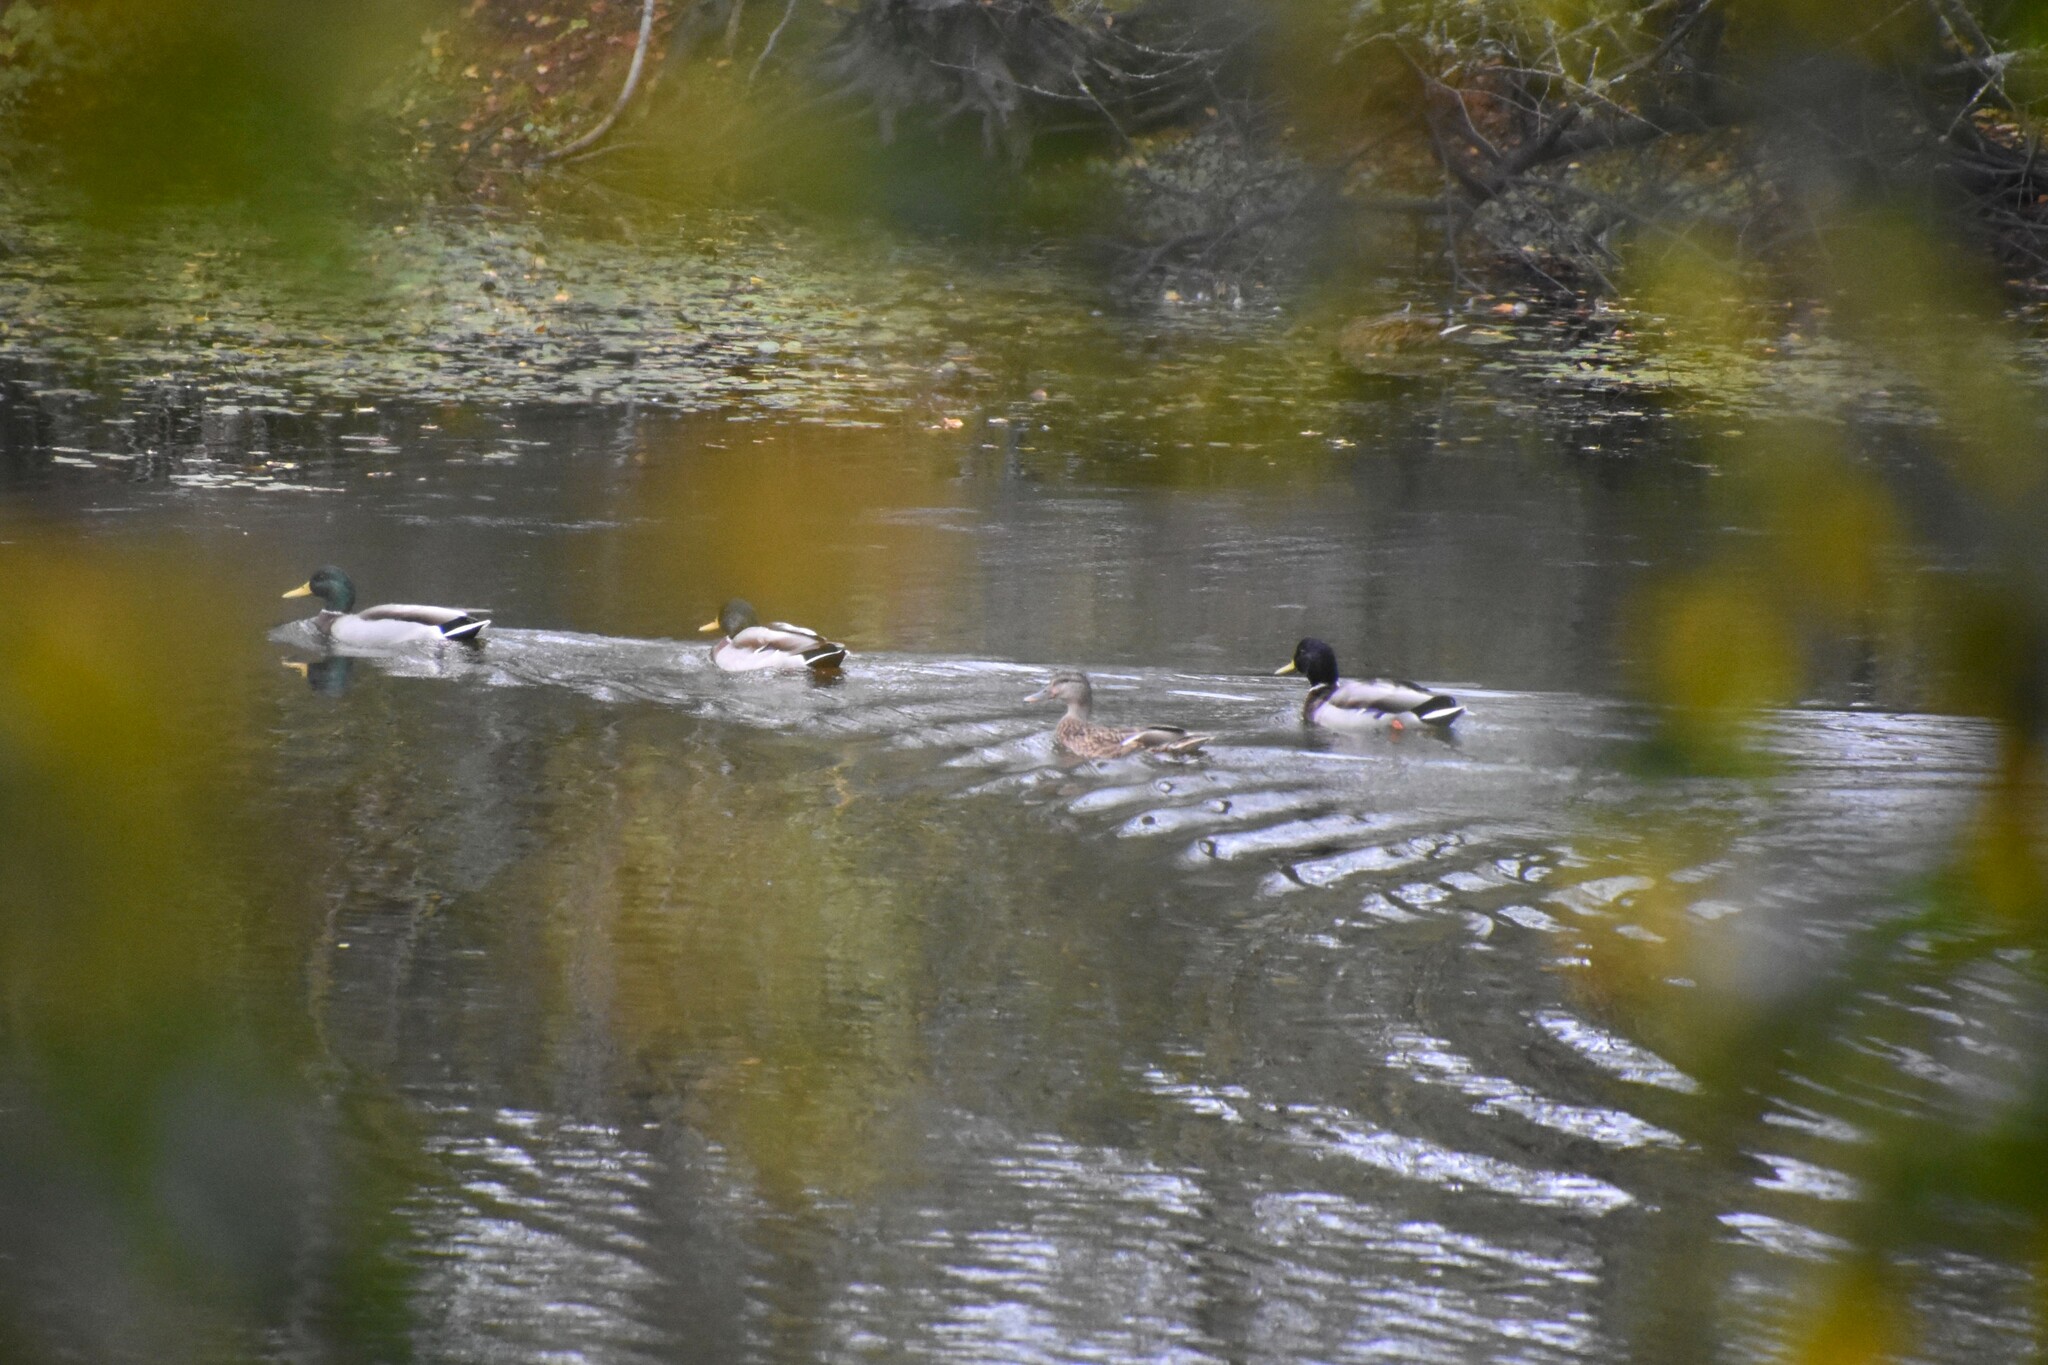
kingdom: Animalia
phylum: Chordata
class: Aves
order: Anseriformes
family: Anatidae
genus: Anas
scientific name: Anas platyrhynchos
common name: Mallard
